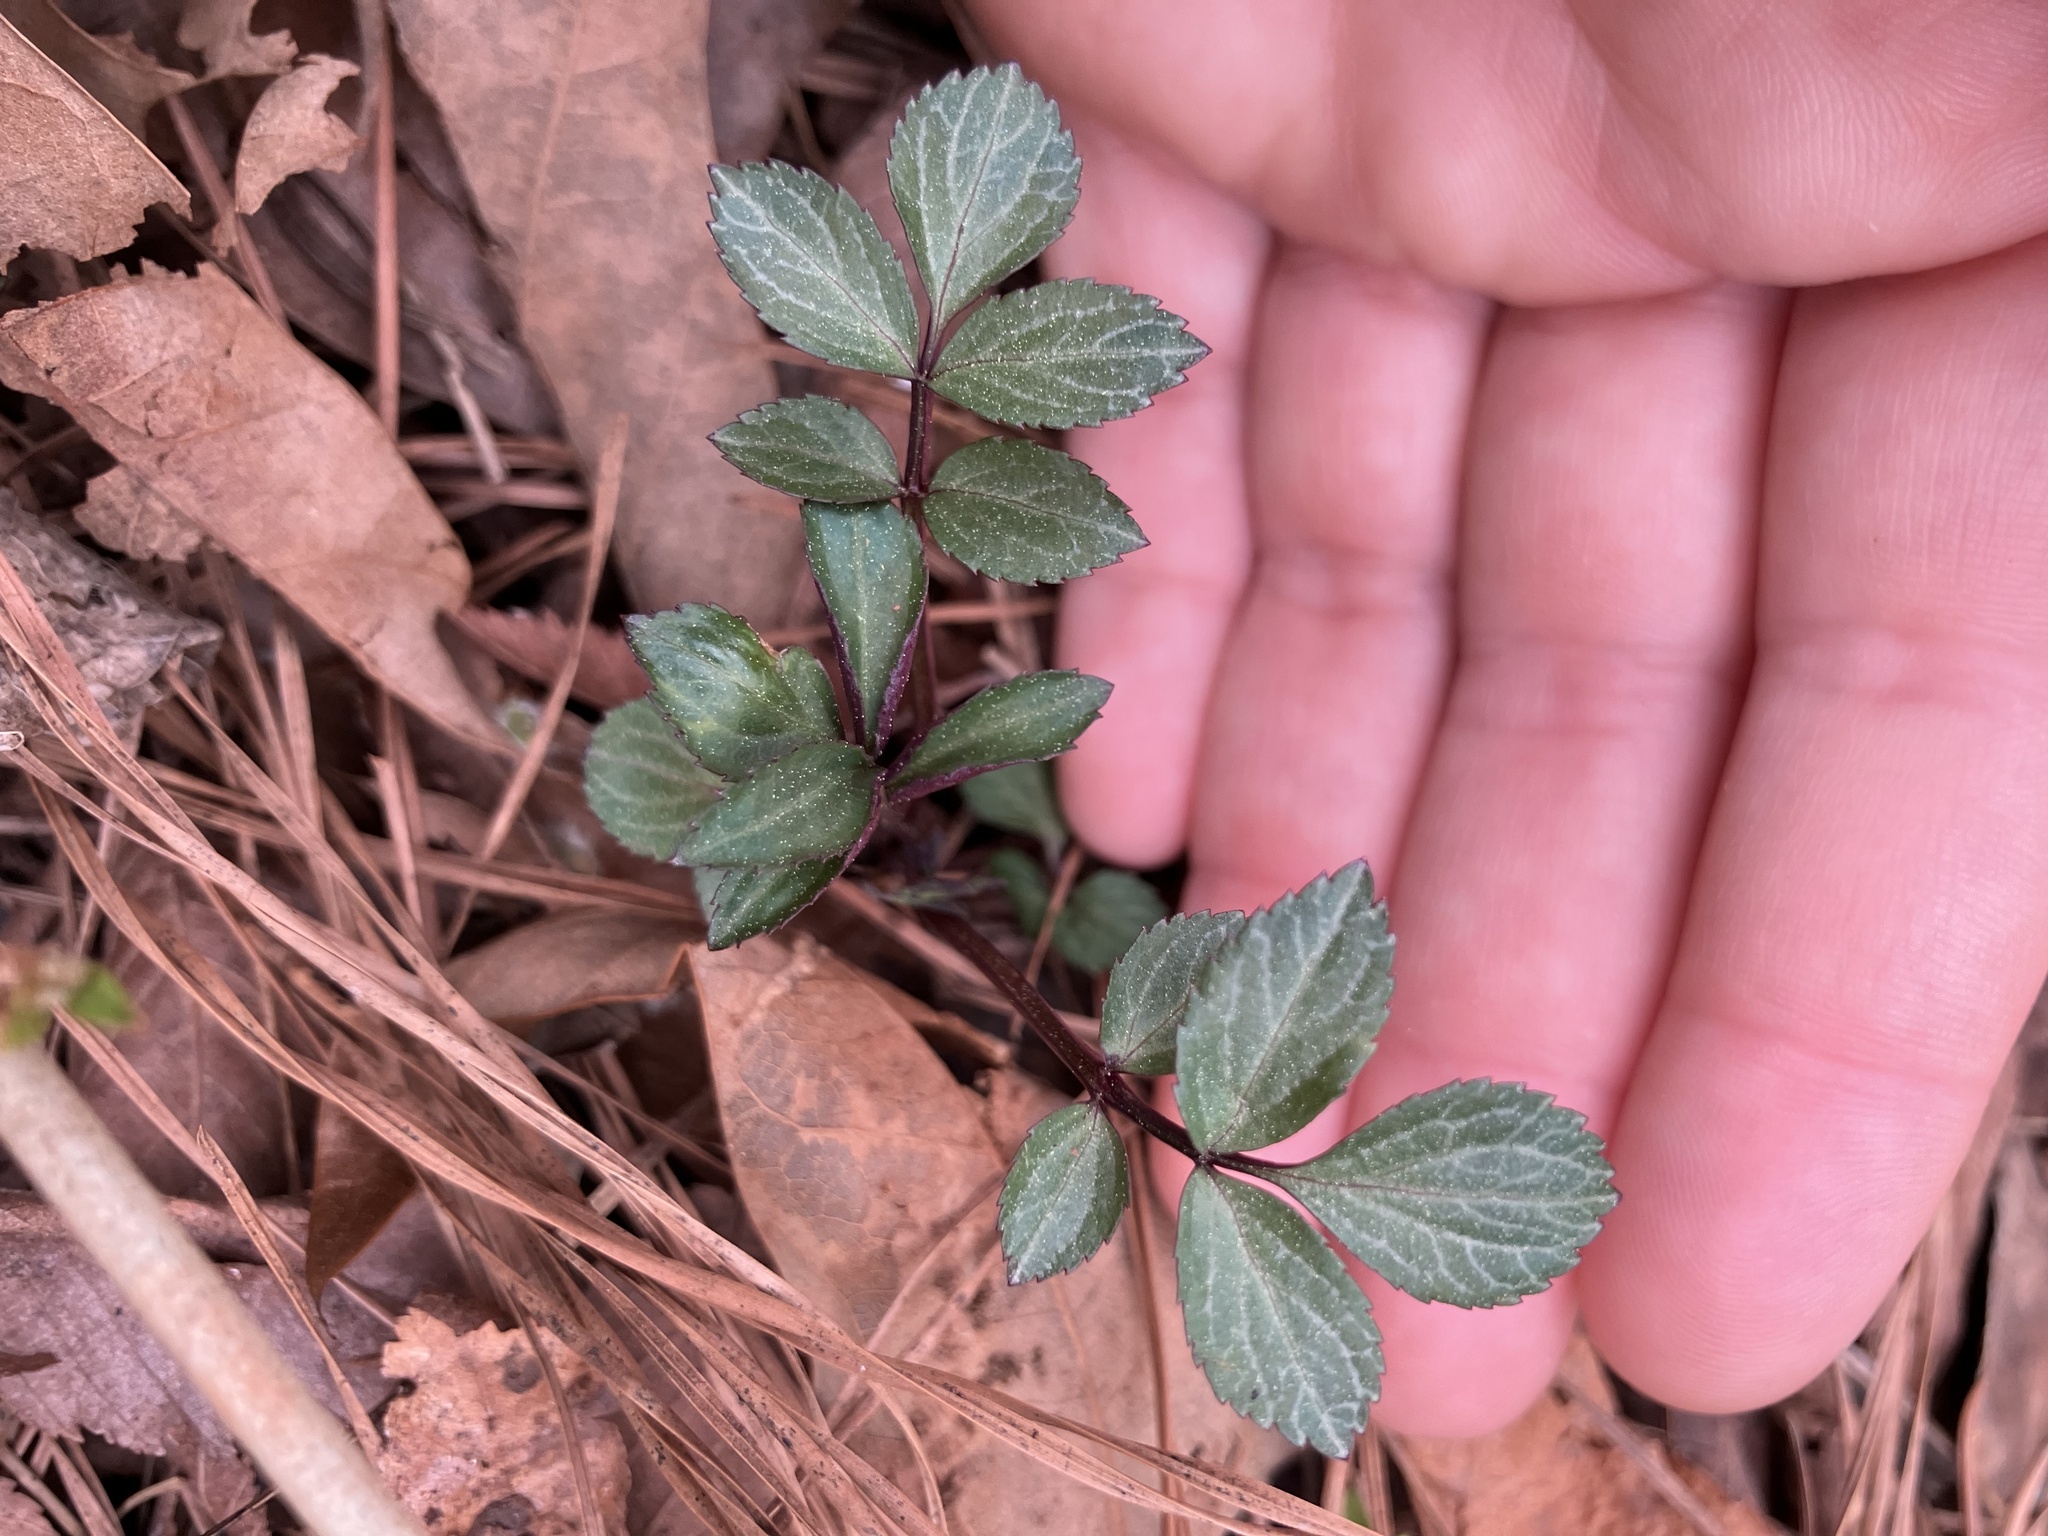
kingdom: Plantae
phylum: Tracheophyta
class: Magnoliopsida
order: Dipsacales
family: Viburnaceae
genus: Sambucus
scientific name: Sambucus canadensis
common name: American elder
